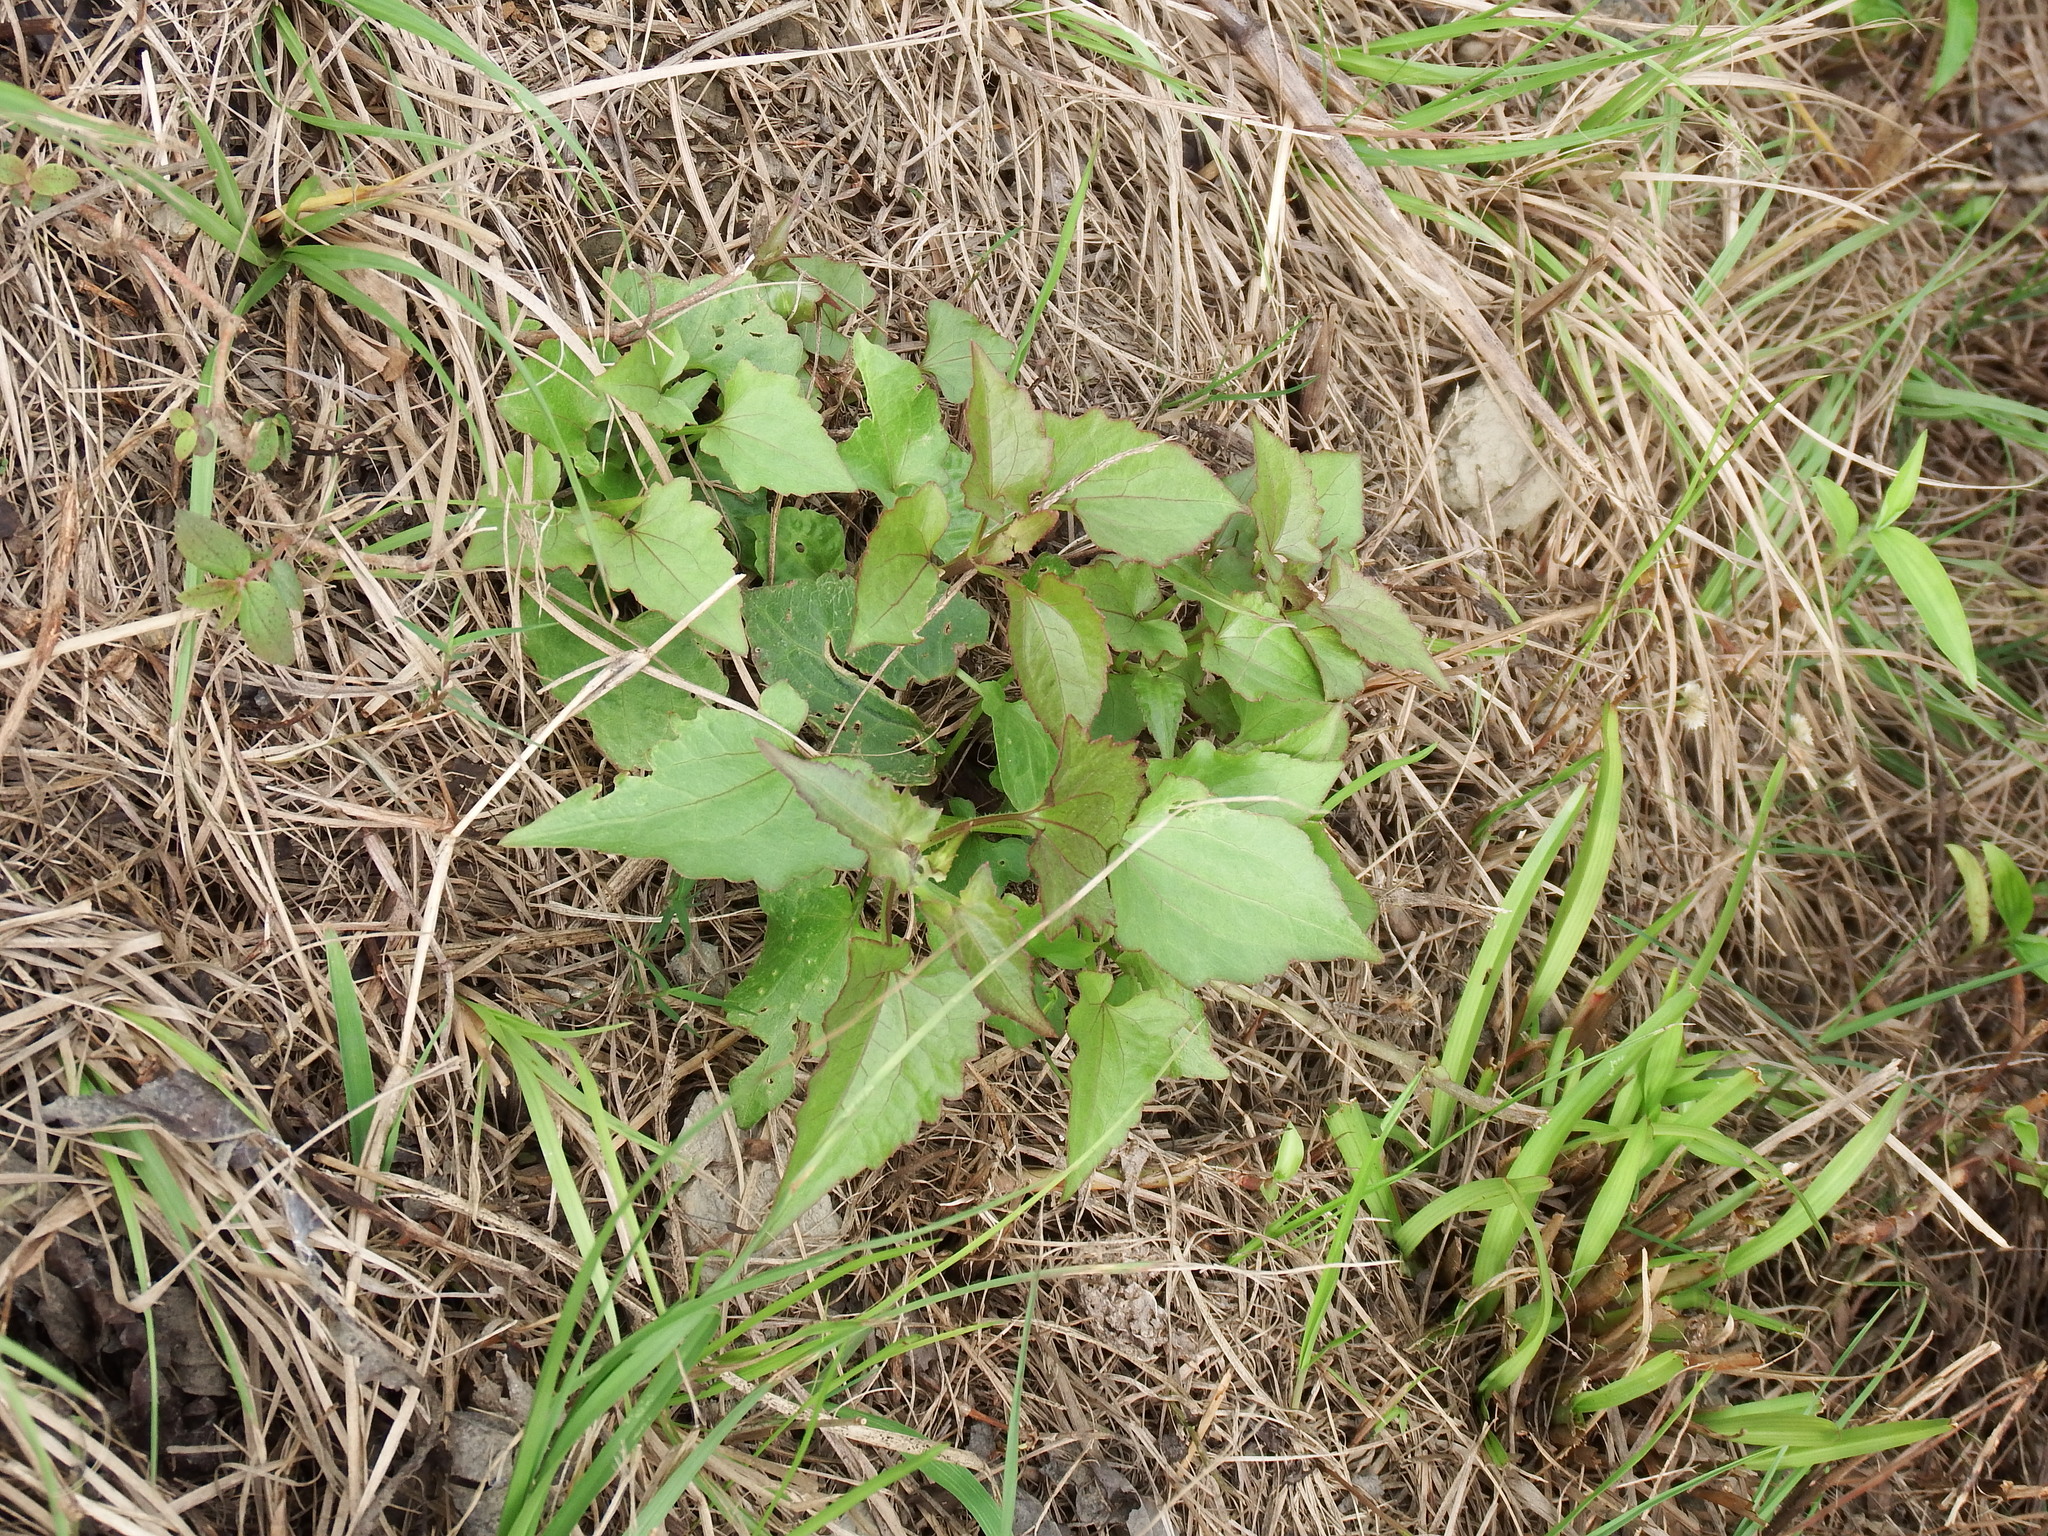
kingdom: Plantae
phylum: Tracheophyta
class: Magnoliopsida
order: Asterales
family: Asteraceae
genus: Mikania
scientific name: Mikania micrantha
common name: Mile-a-minute
